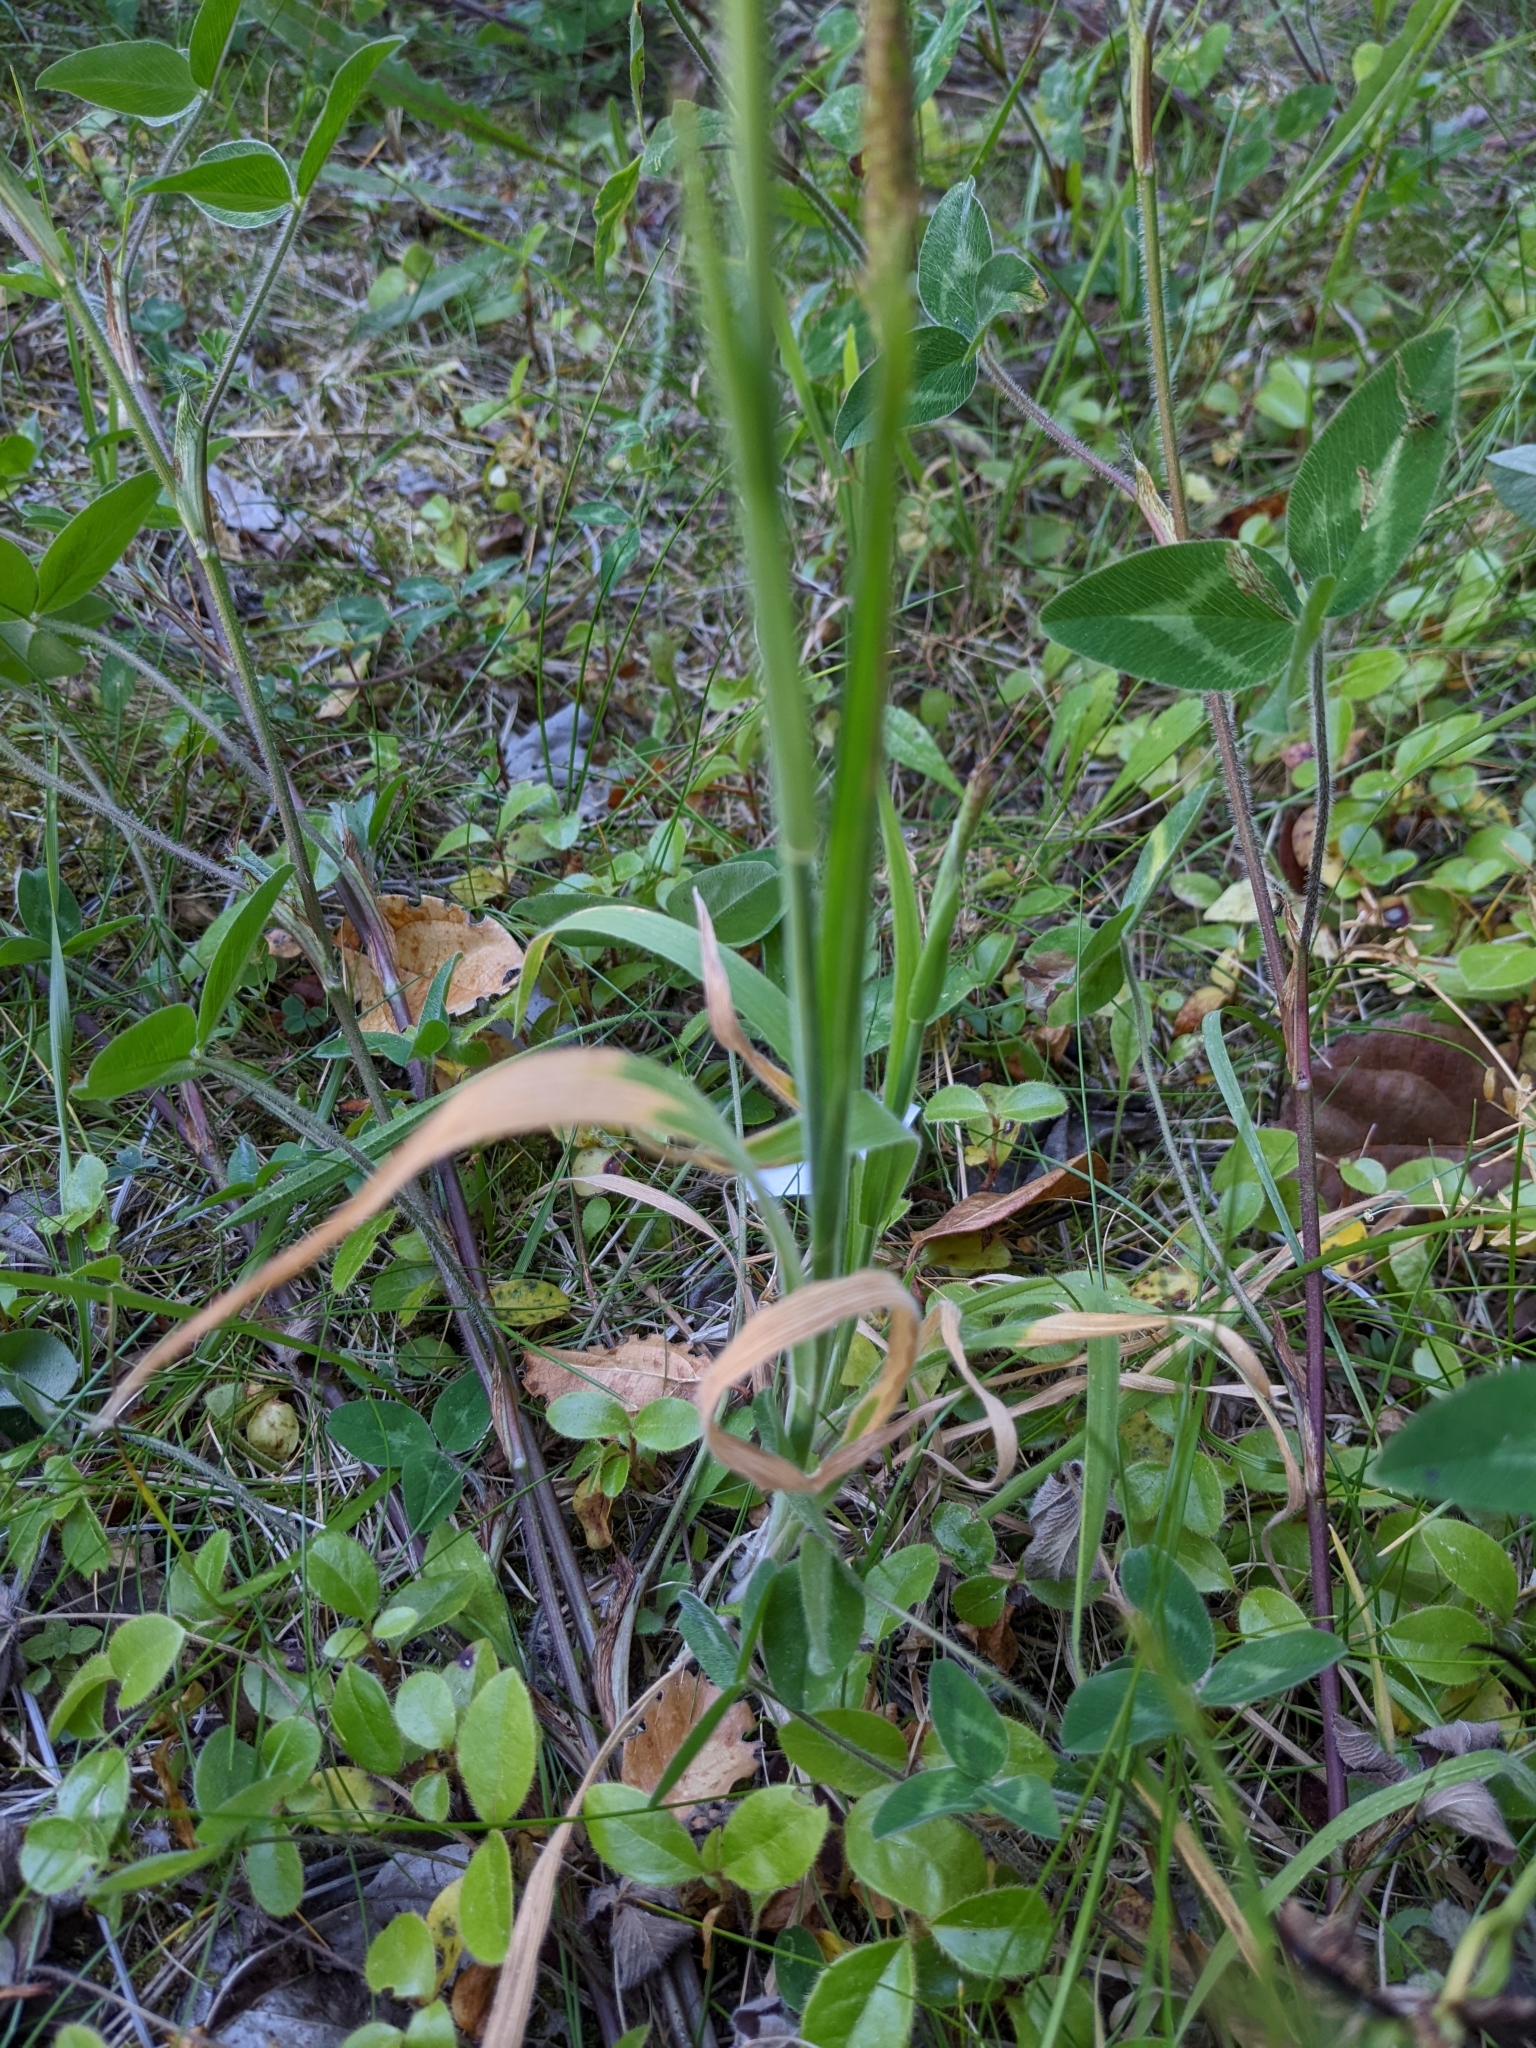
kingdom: Plantae
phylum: Tracheophyta
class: Liliopsida
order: Poales
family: Poaceae
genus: Holcus
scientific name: Holcus lanatus
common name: Yorkshire-fog
